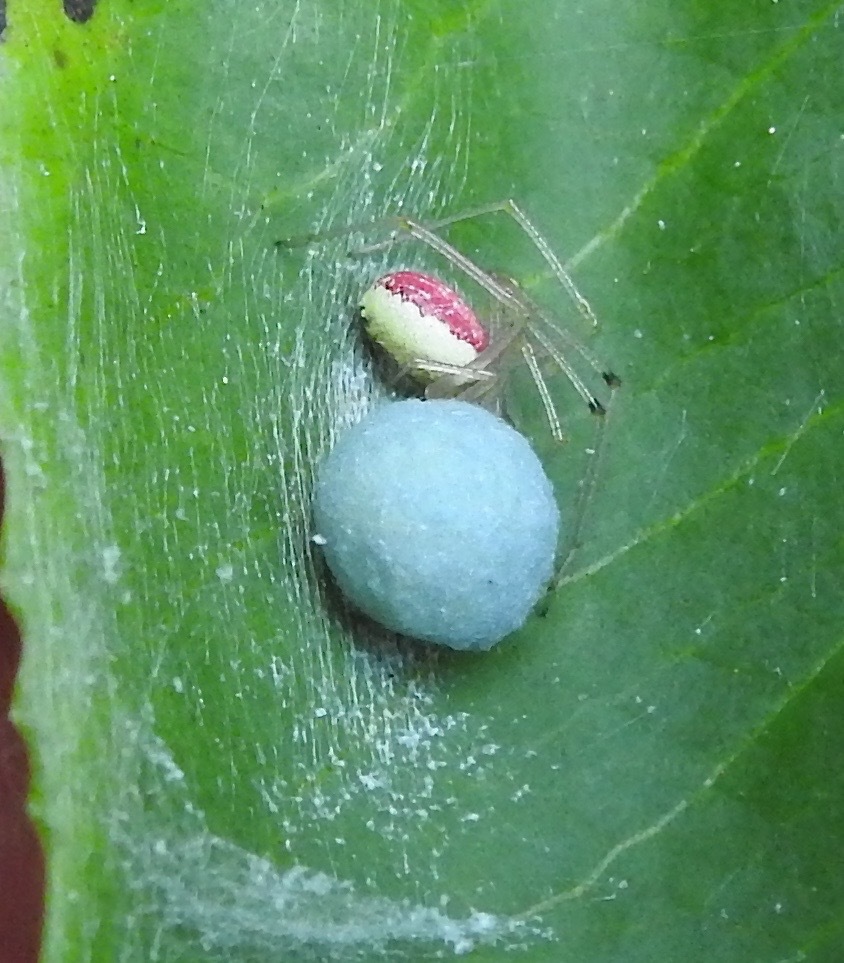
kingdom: Animalia
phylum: Arthropoda
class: Arachnida
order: Araneae
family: Theridiidae
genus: Enoplognatha
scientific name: Enoplognatha ovata
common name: Common candy-striped spider
